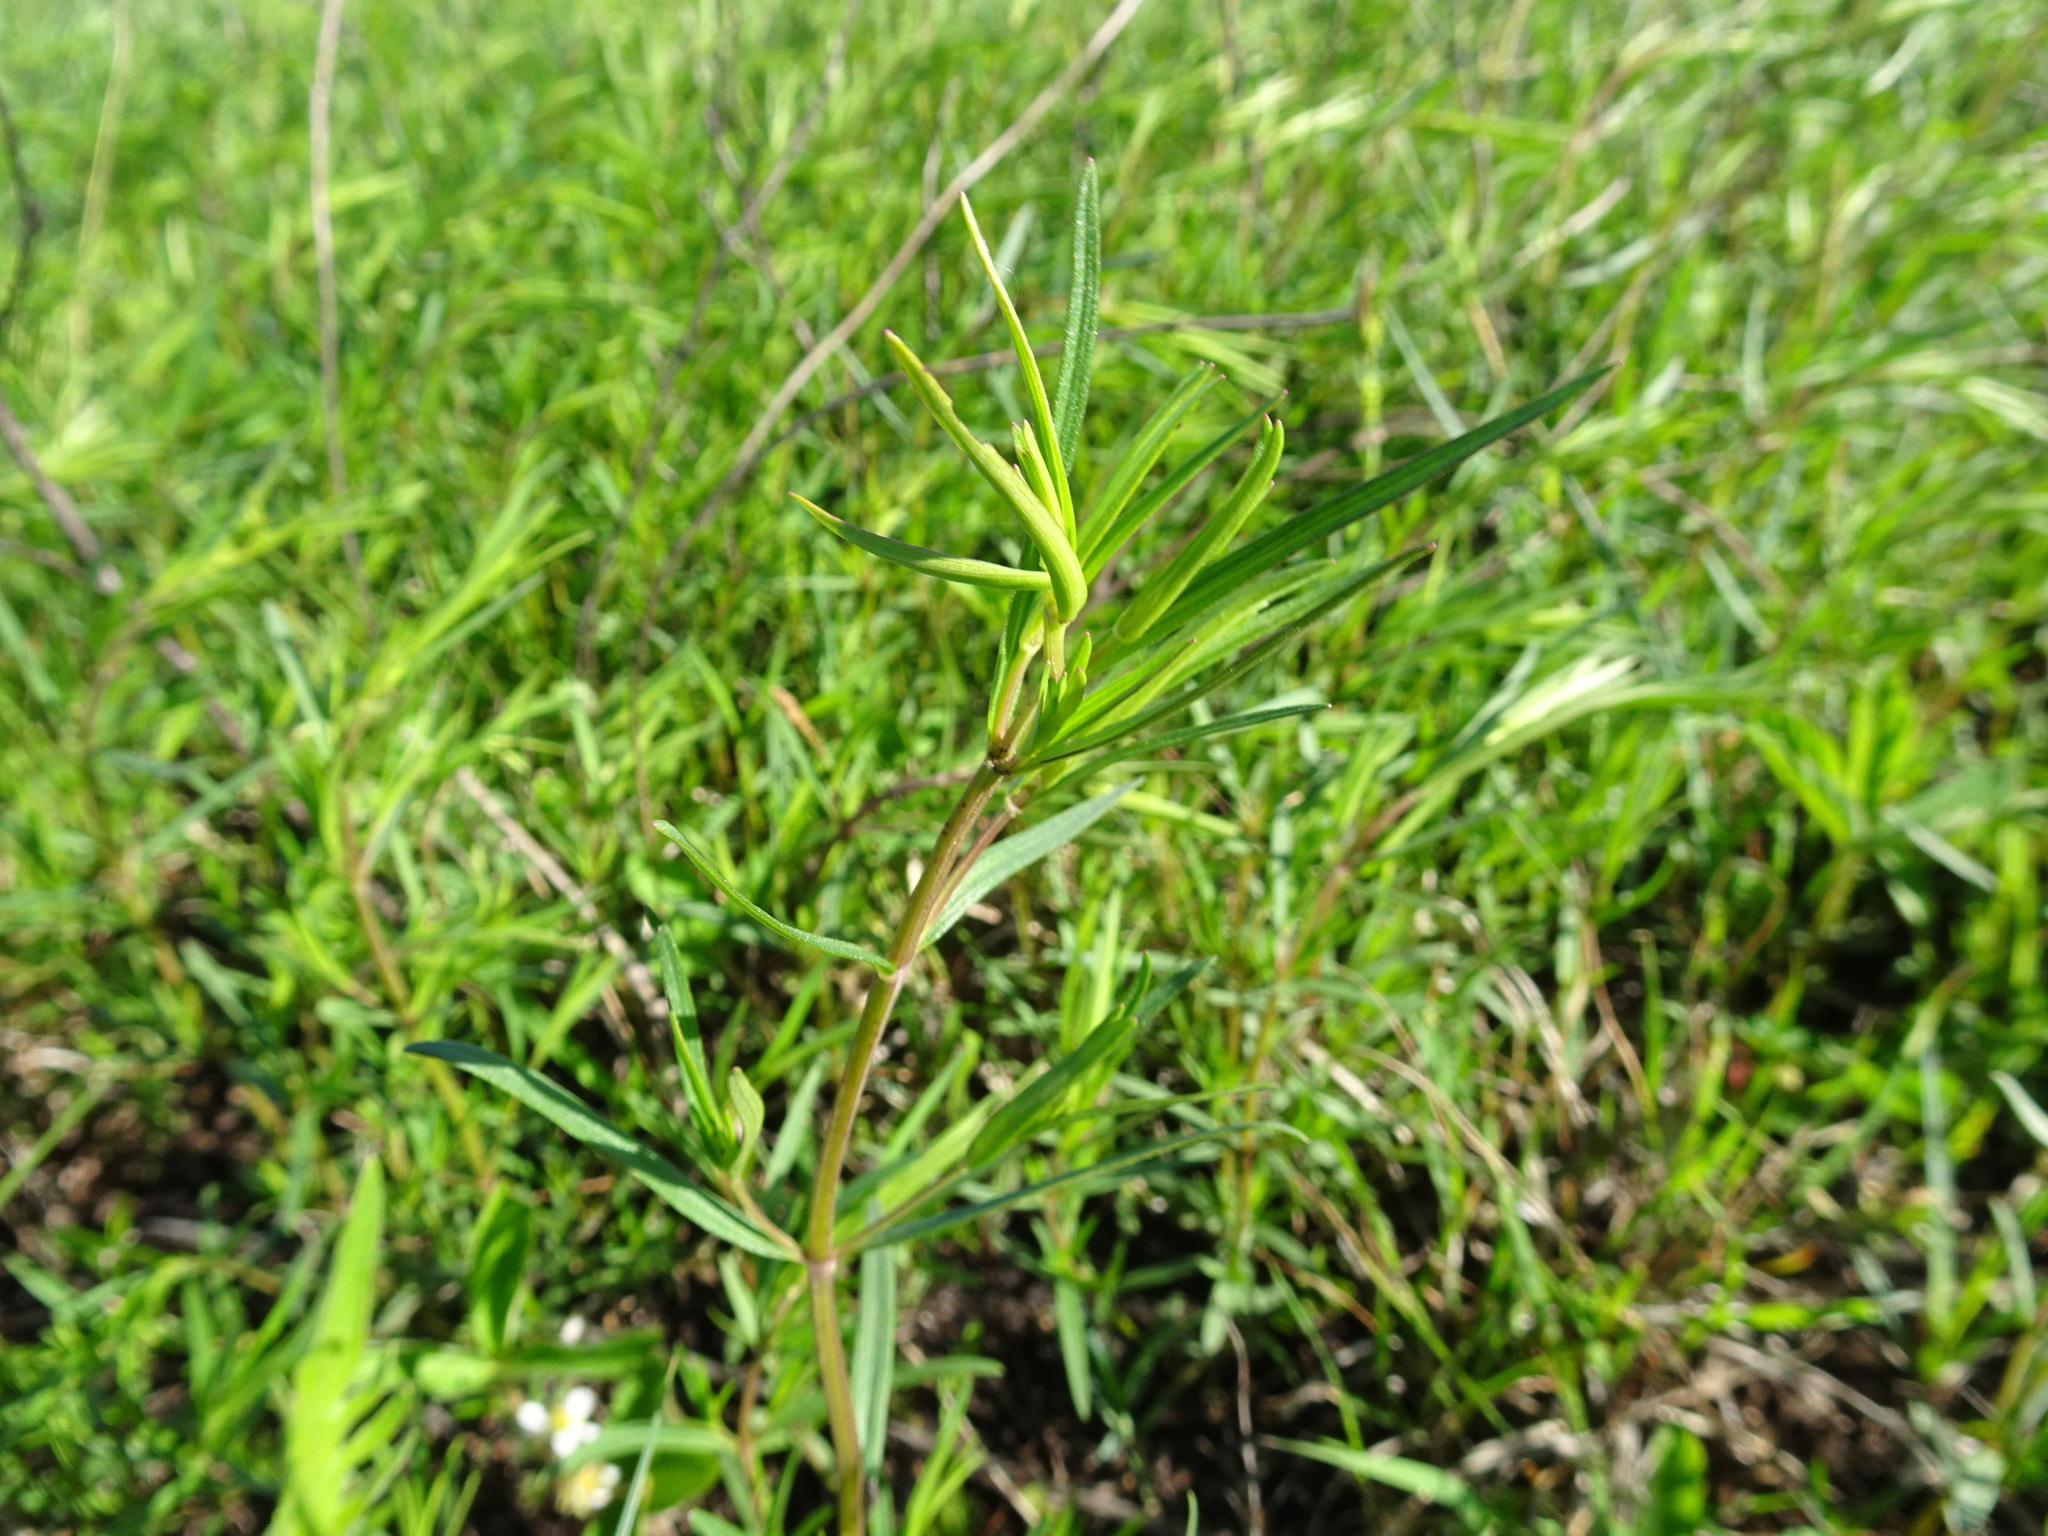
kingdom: Plantae
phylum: Tracheophyta
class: Magnoliopsida
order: Lamiales
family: Lamiaceae
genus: Pycnanthemum
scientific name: Pycnanthemum tenuifolium
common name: Narrow-leaf mountain-mint
